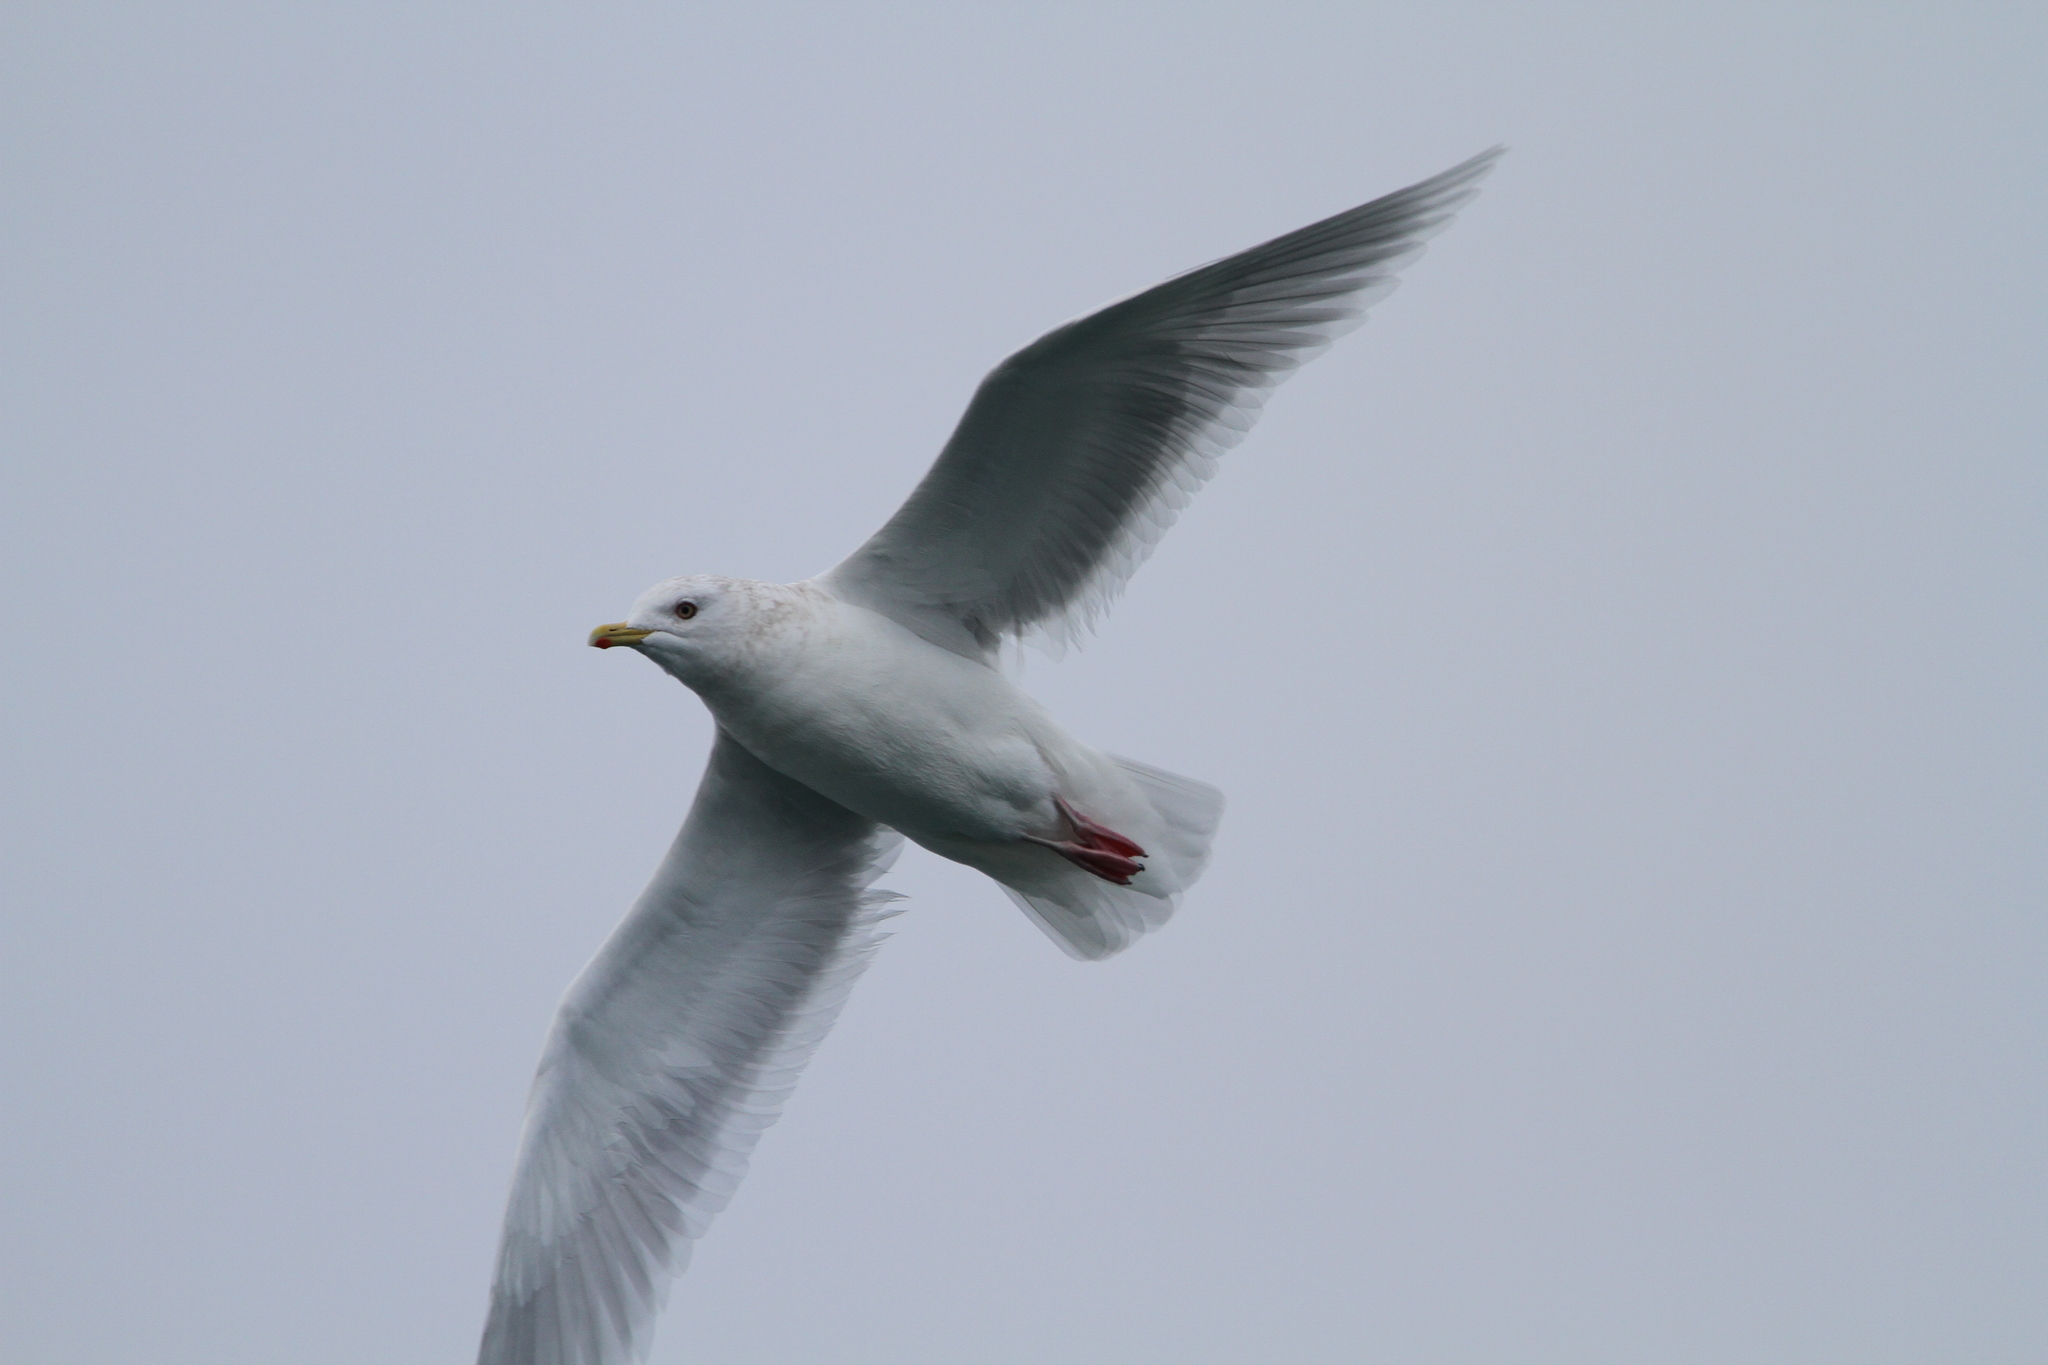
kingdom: Animalia
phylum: Chordata
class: Aves
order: Charadriiformes
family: Laridae
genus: Larus
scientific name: Larus glaucoides
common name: Iceland gull
